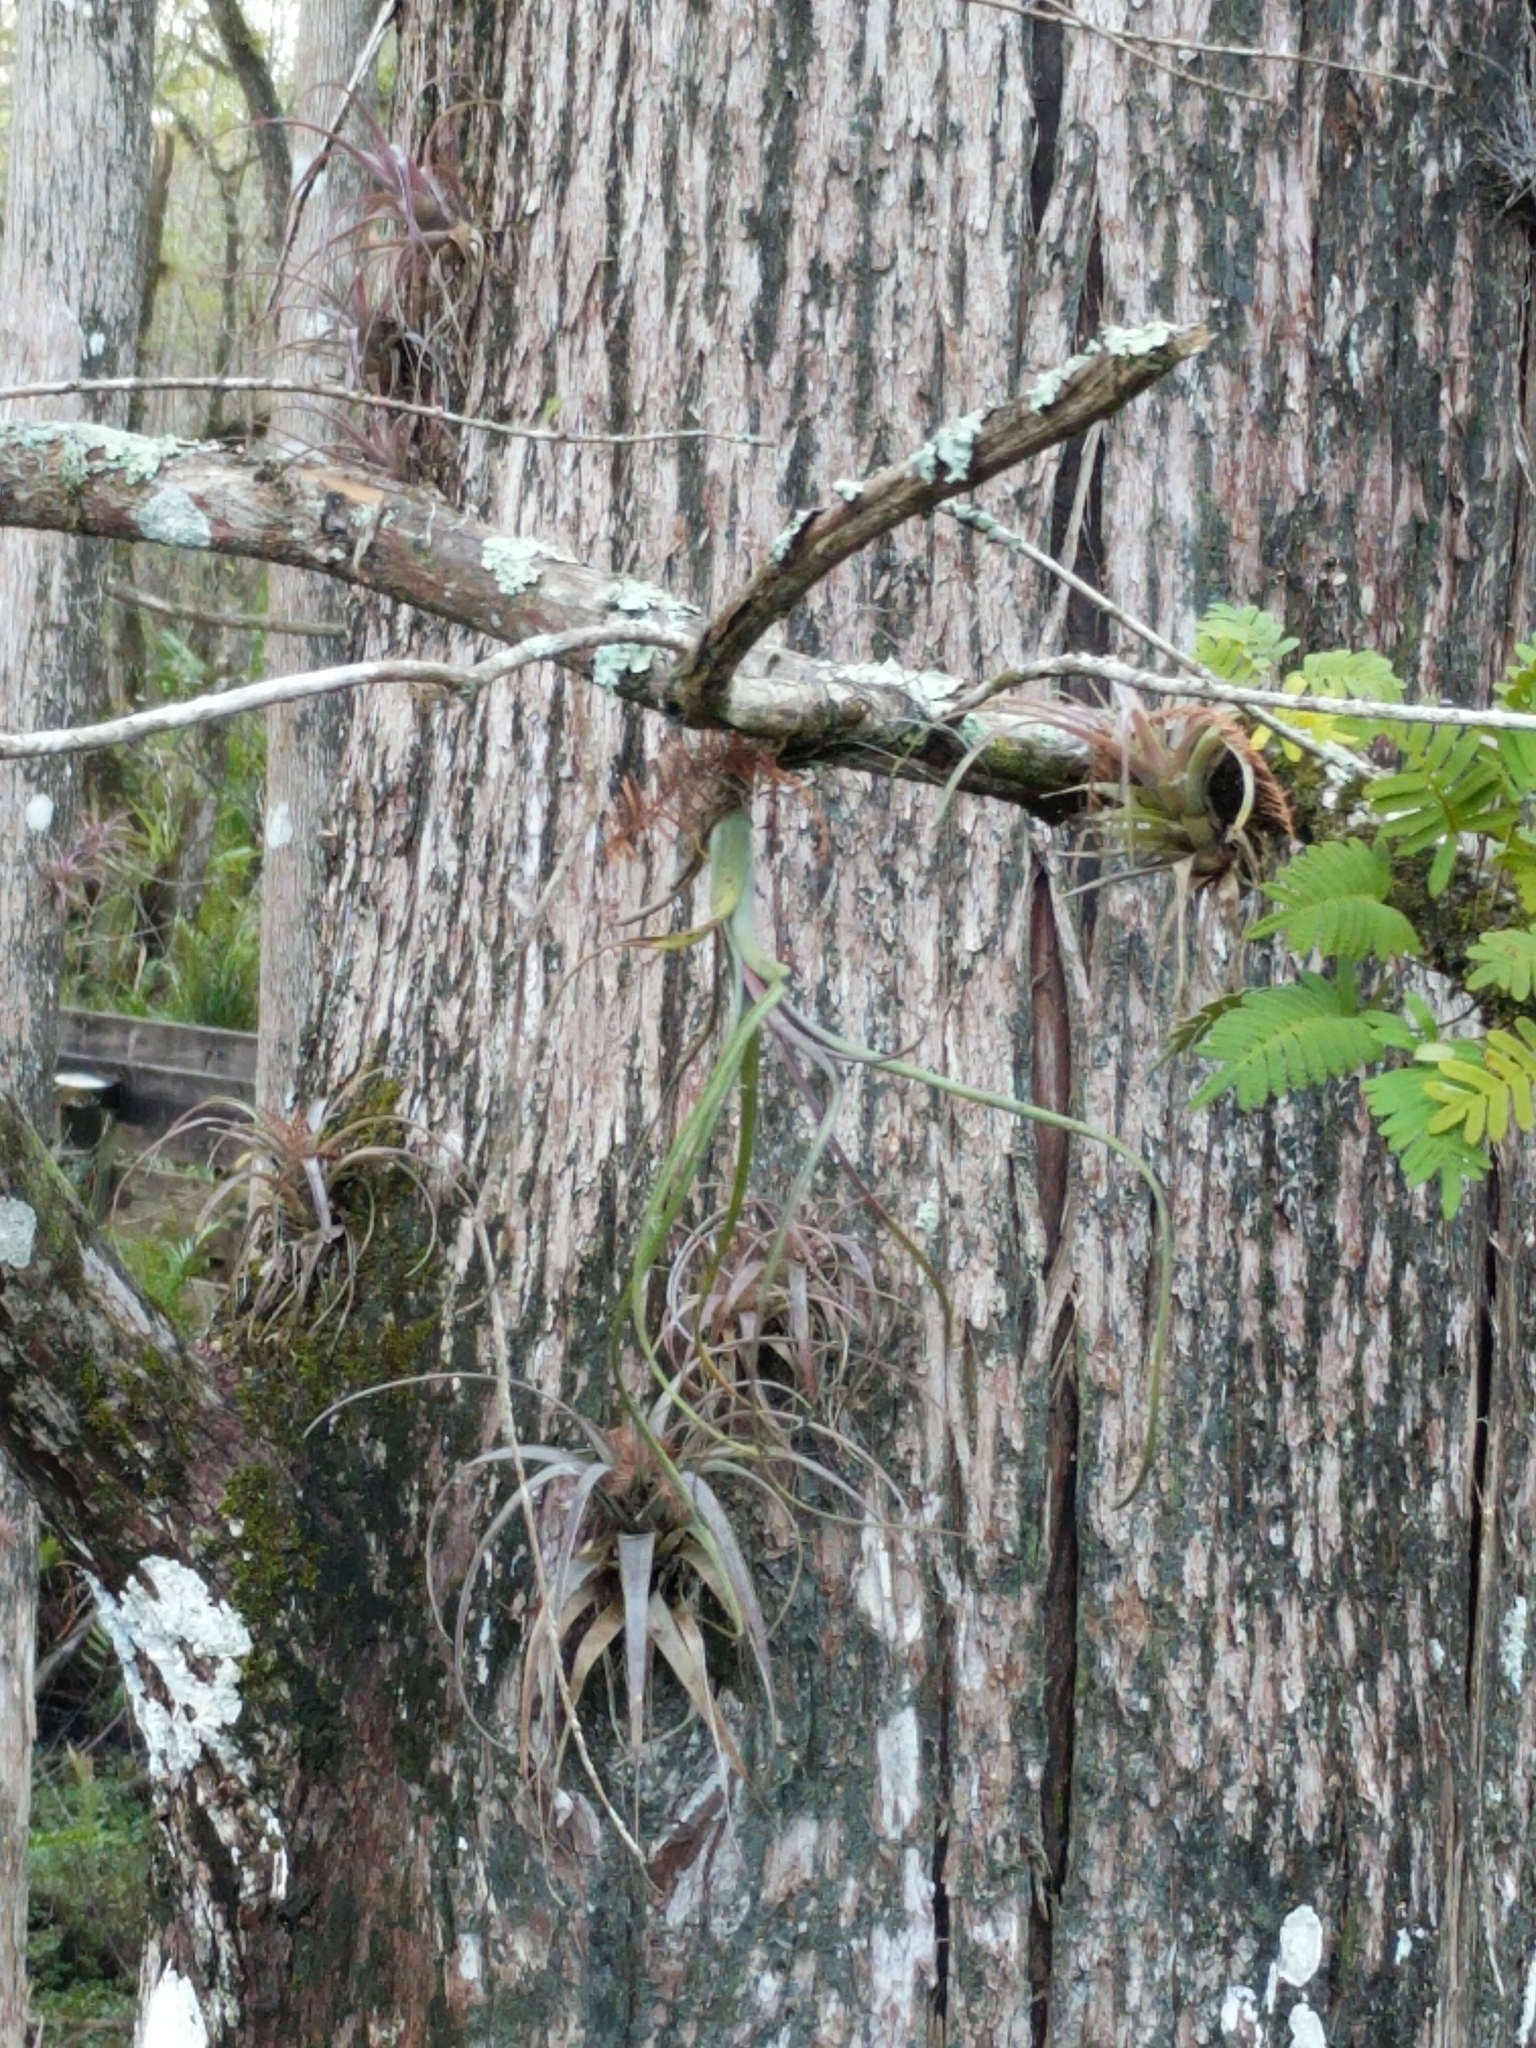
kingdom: Plantae
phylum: Tracheophyta
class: Liliopsida
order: Poales
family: Bromeliaceae
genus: Tillandsia
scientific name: Tillandsia balbisiana
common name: Northern needleleaf
